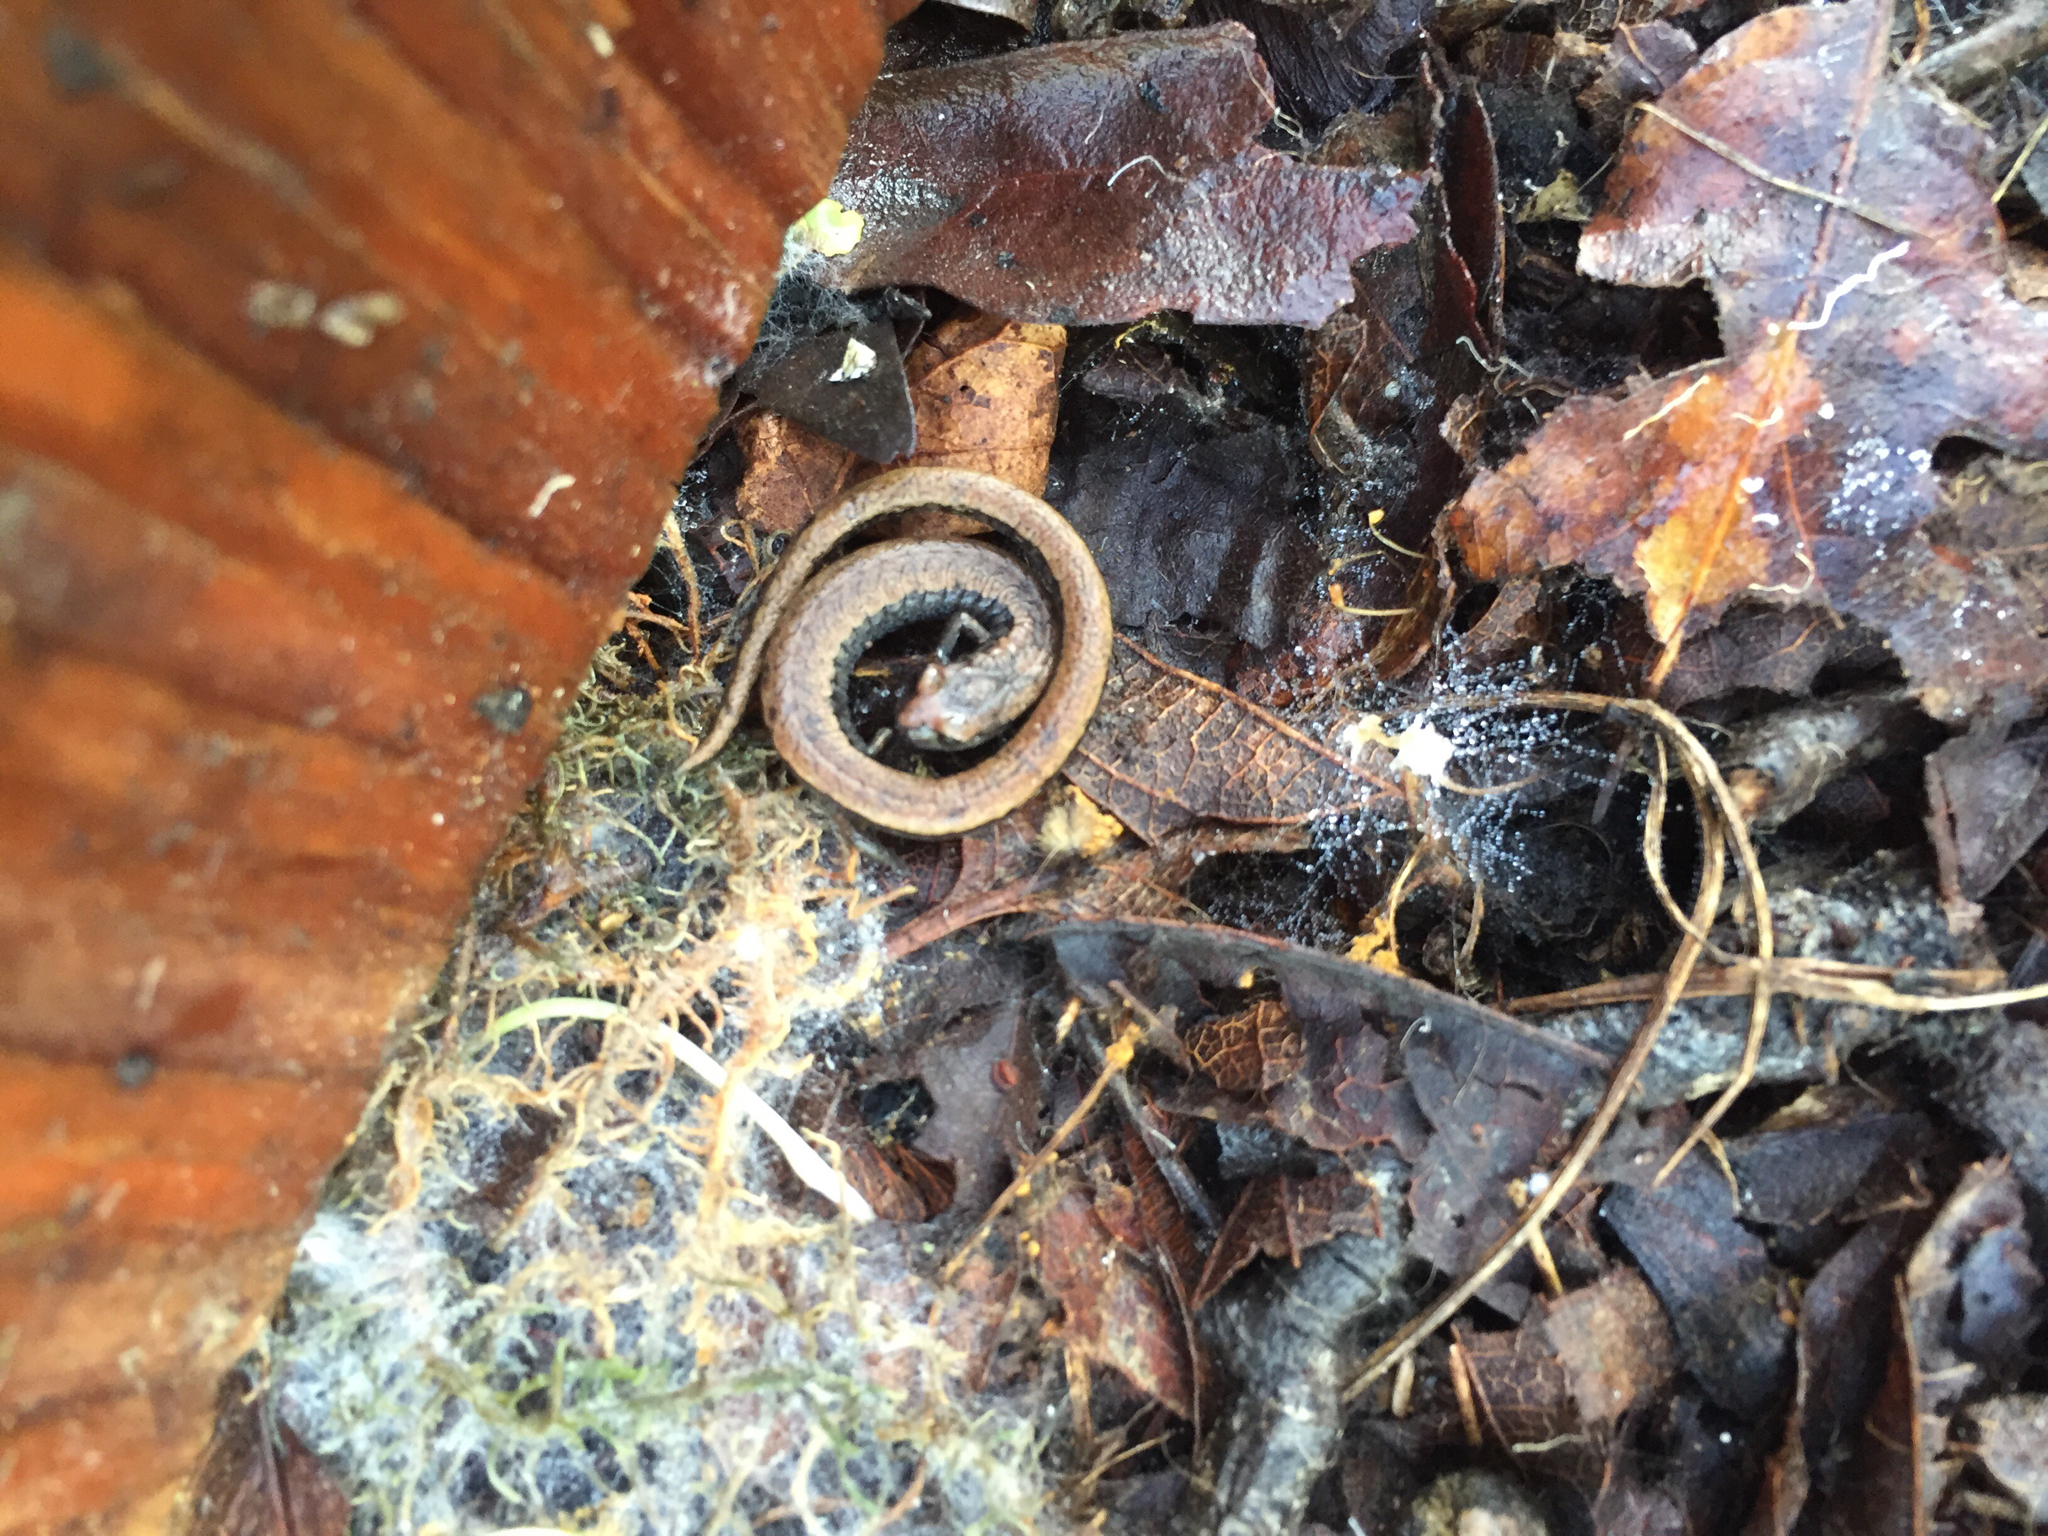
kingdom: Animalia
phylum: Chordata
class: Amphibia
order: Caudata
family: Plethodontidae
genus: Batrachoseps
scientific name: Batrachoseps attenuatus
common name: California slender salamander
